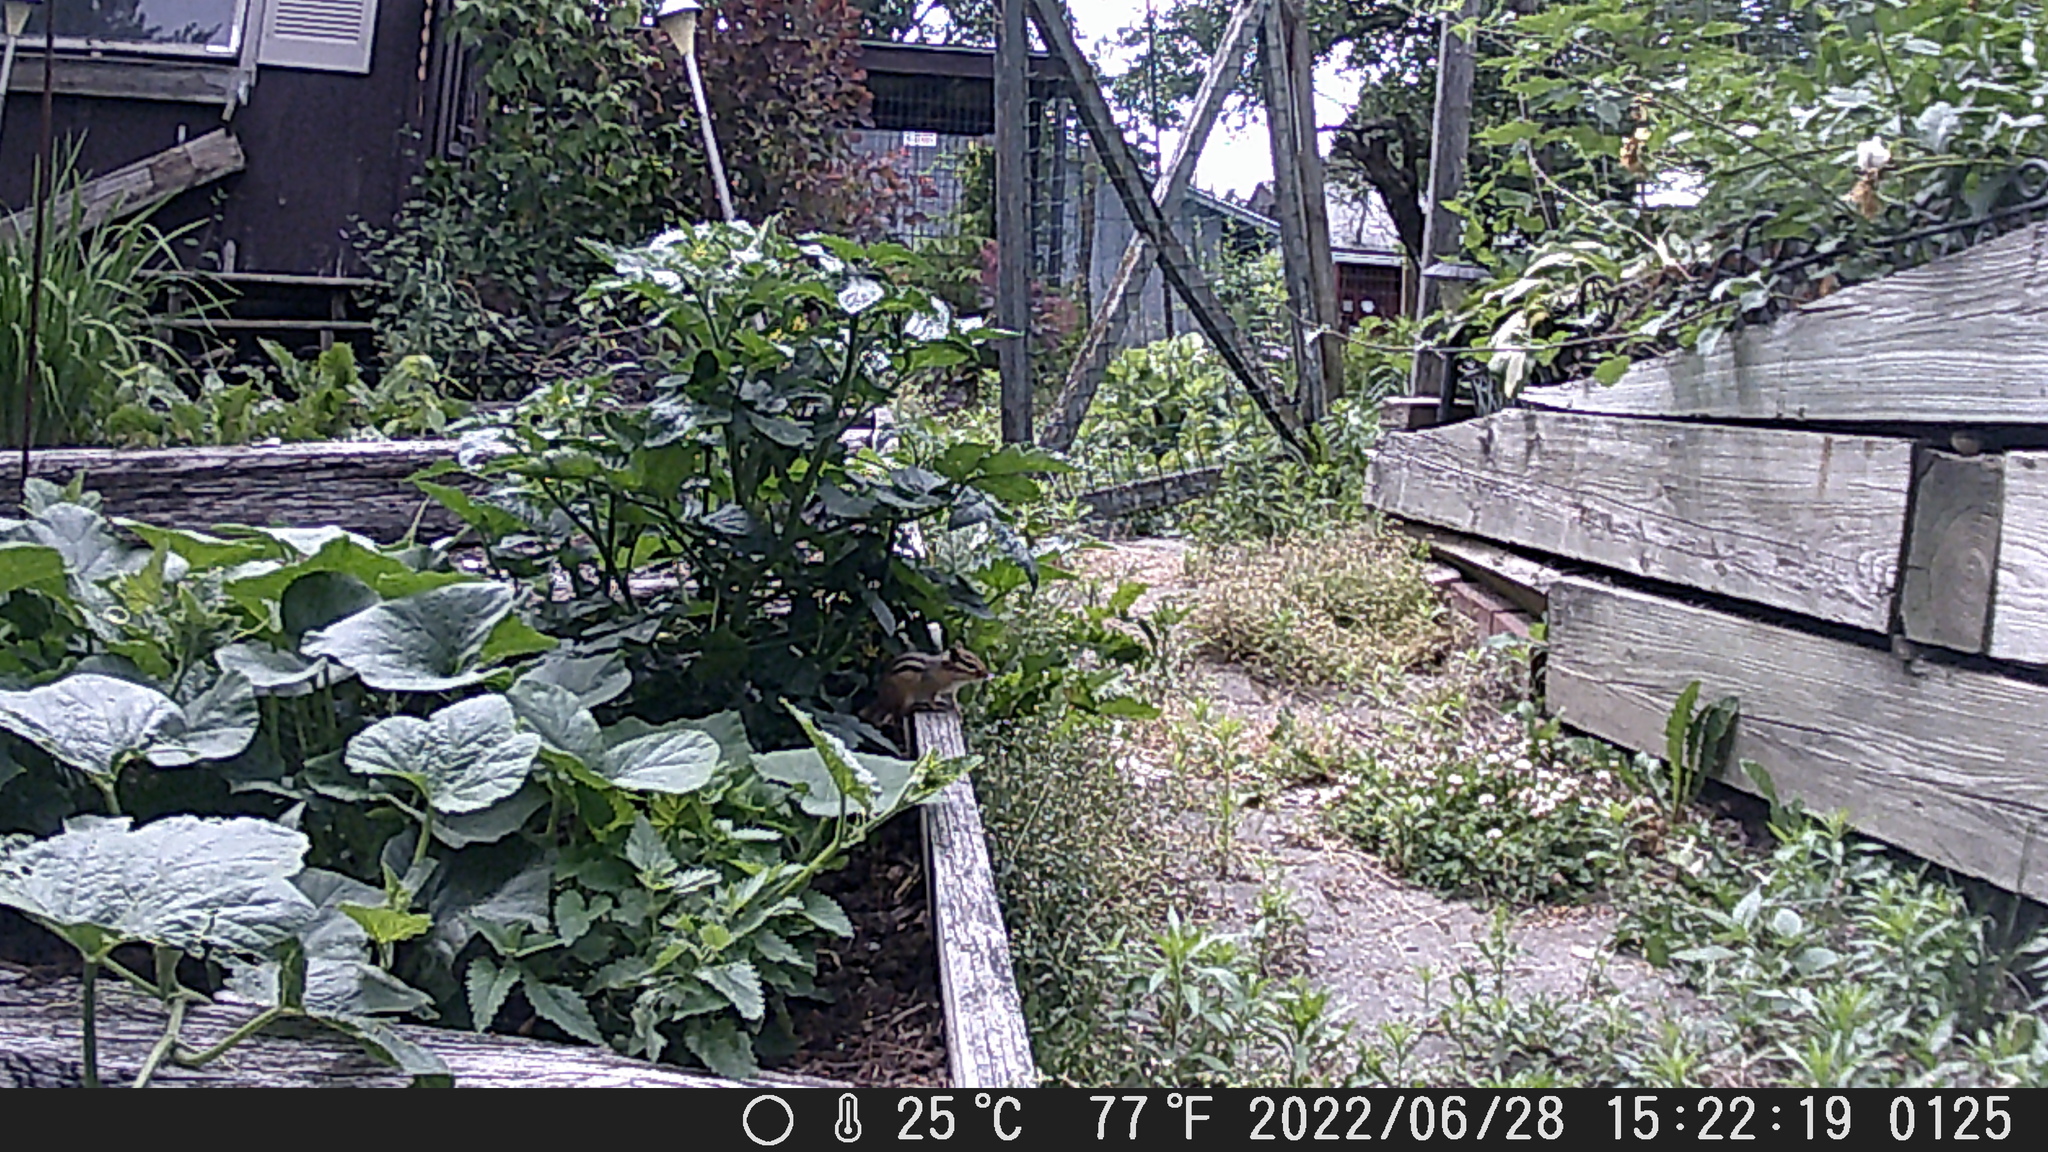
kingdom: Animalia
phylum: Chordata
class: Mammalia
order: Rodentia
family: Sciuridae
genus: Tamias
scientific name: Tamias striatus
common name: Eastern chipmunk
